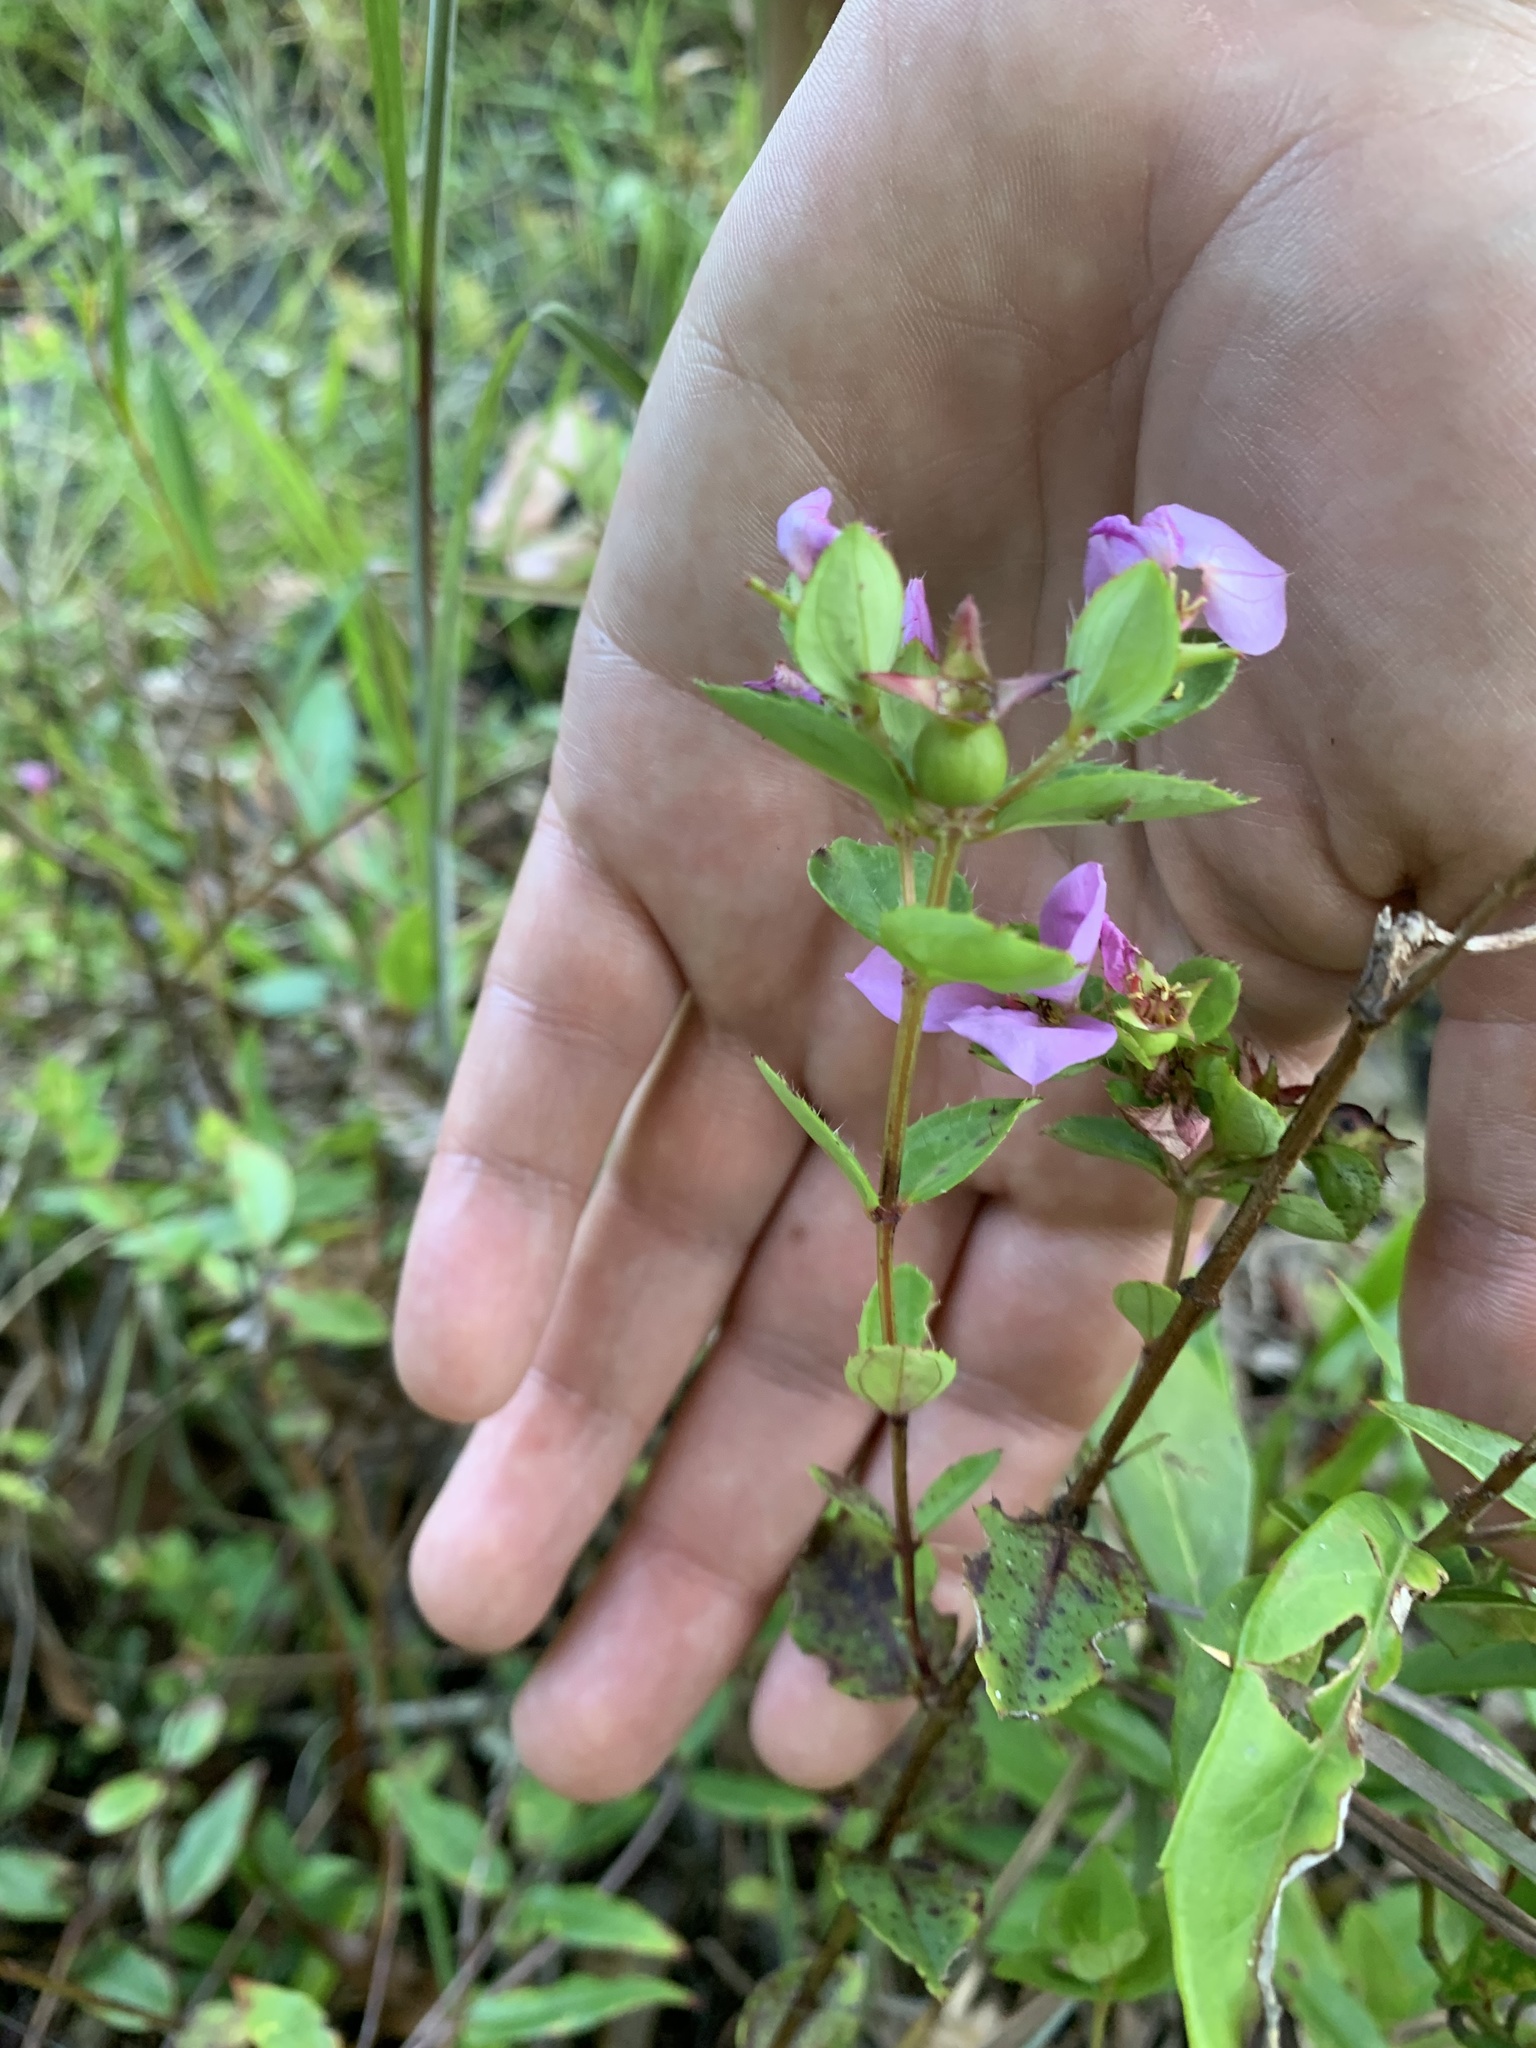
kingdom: Plantae
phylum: Tracheophyta
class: Magnoliopsida
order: Myrtales
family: Melastomataceae
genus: Rhexia
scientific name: Rhexia petiolata
